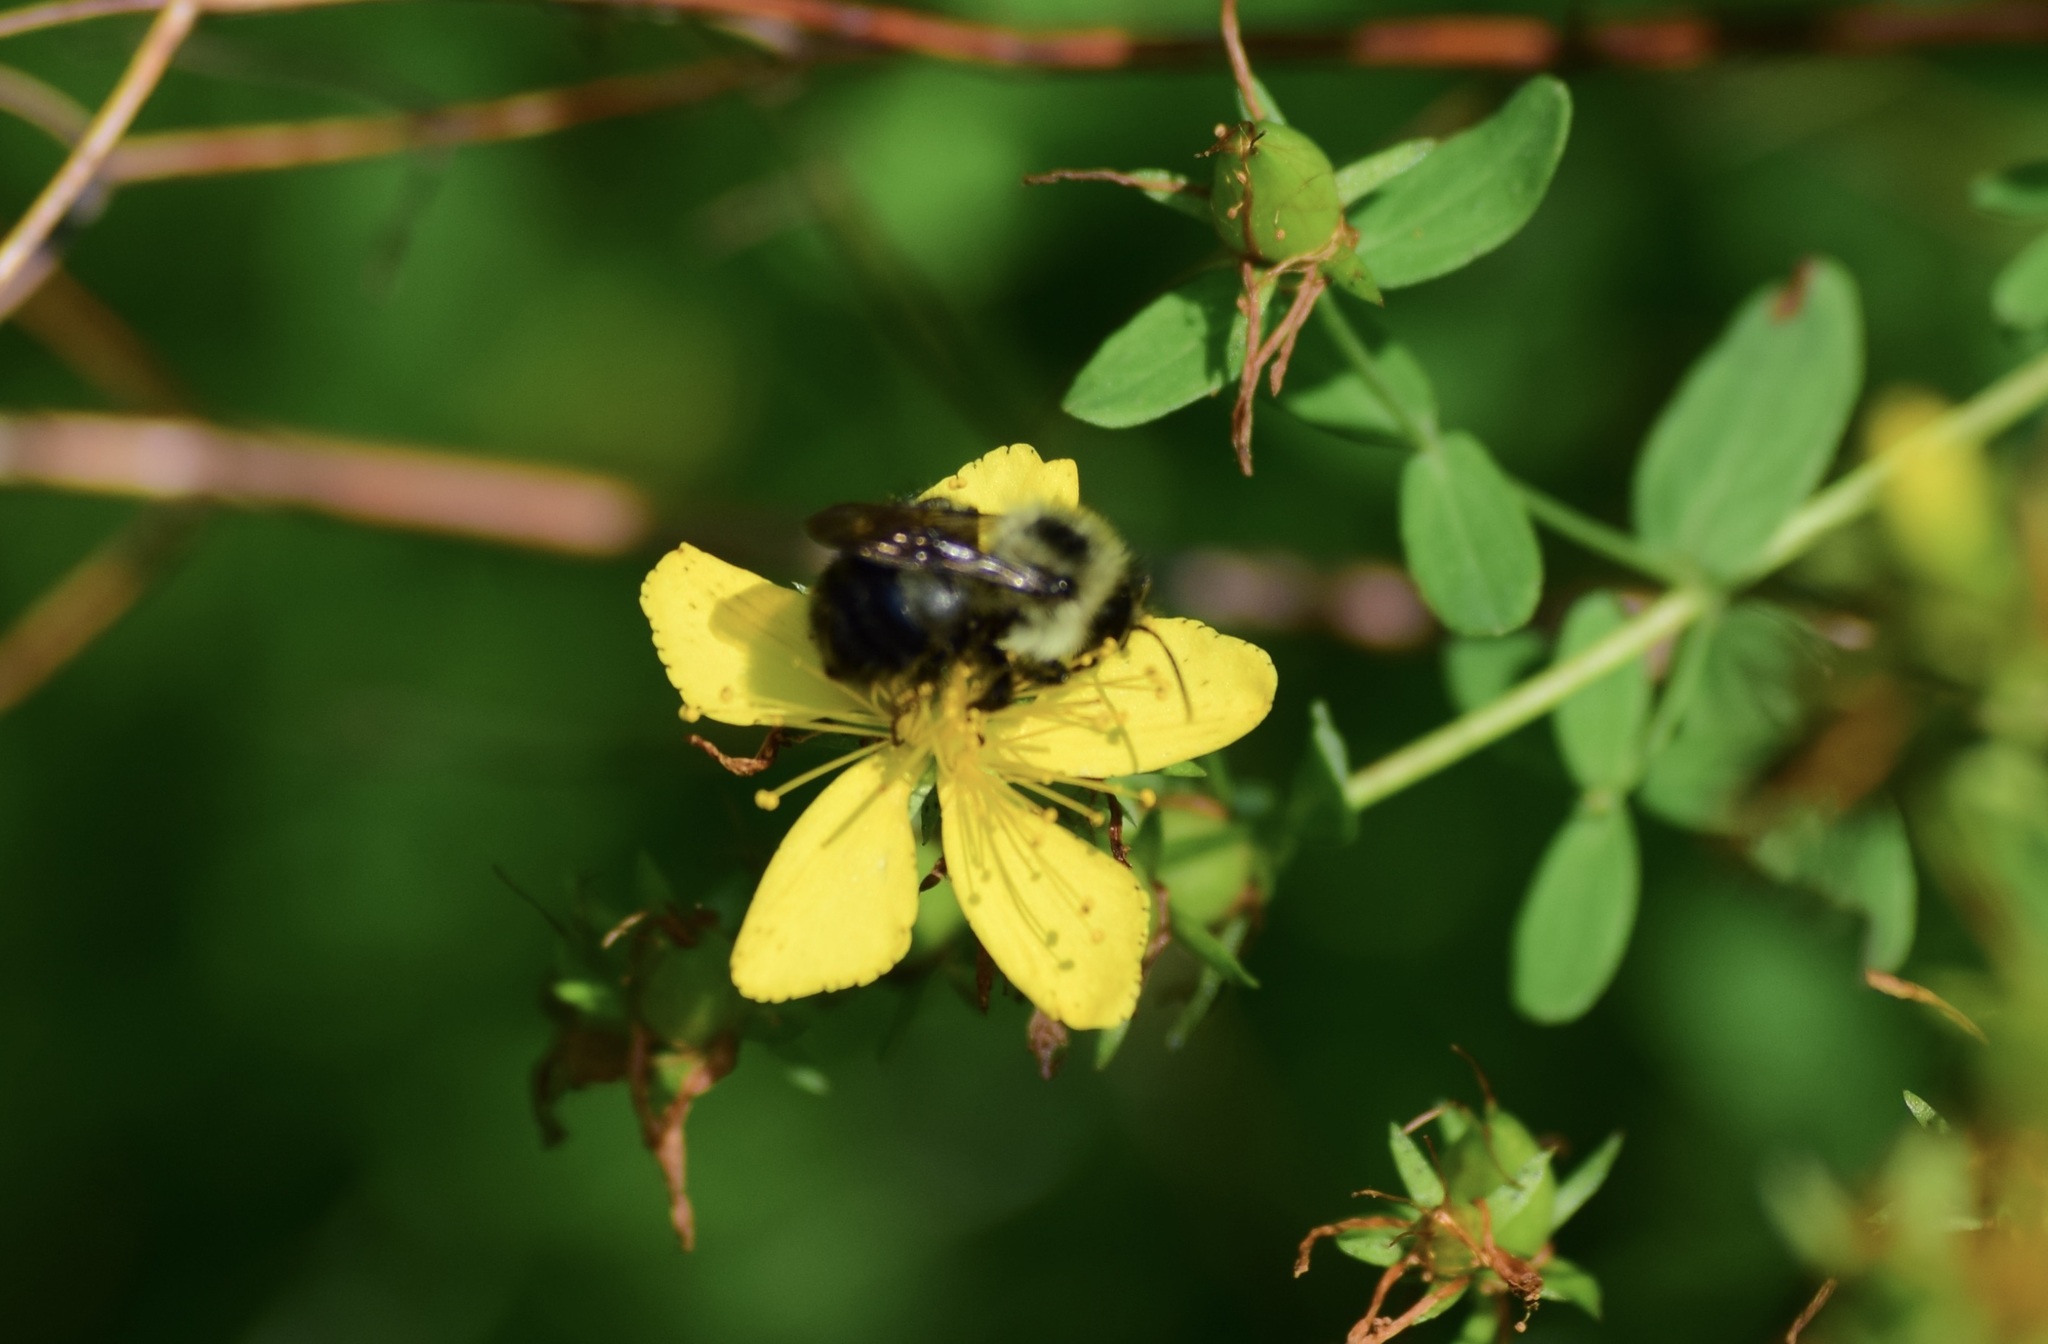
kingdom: Animalia
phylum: Arthropoda
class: Insecta
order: Hymenoptera
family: Apidae
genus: Pyrobombus
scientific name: Pyrobombus
